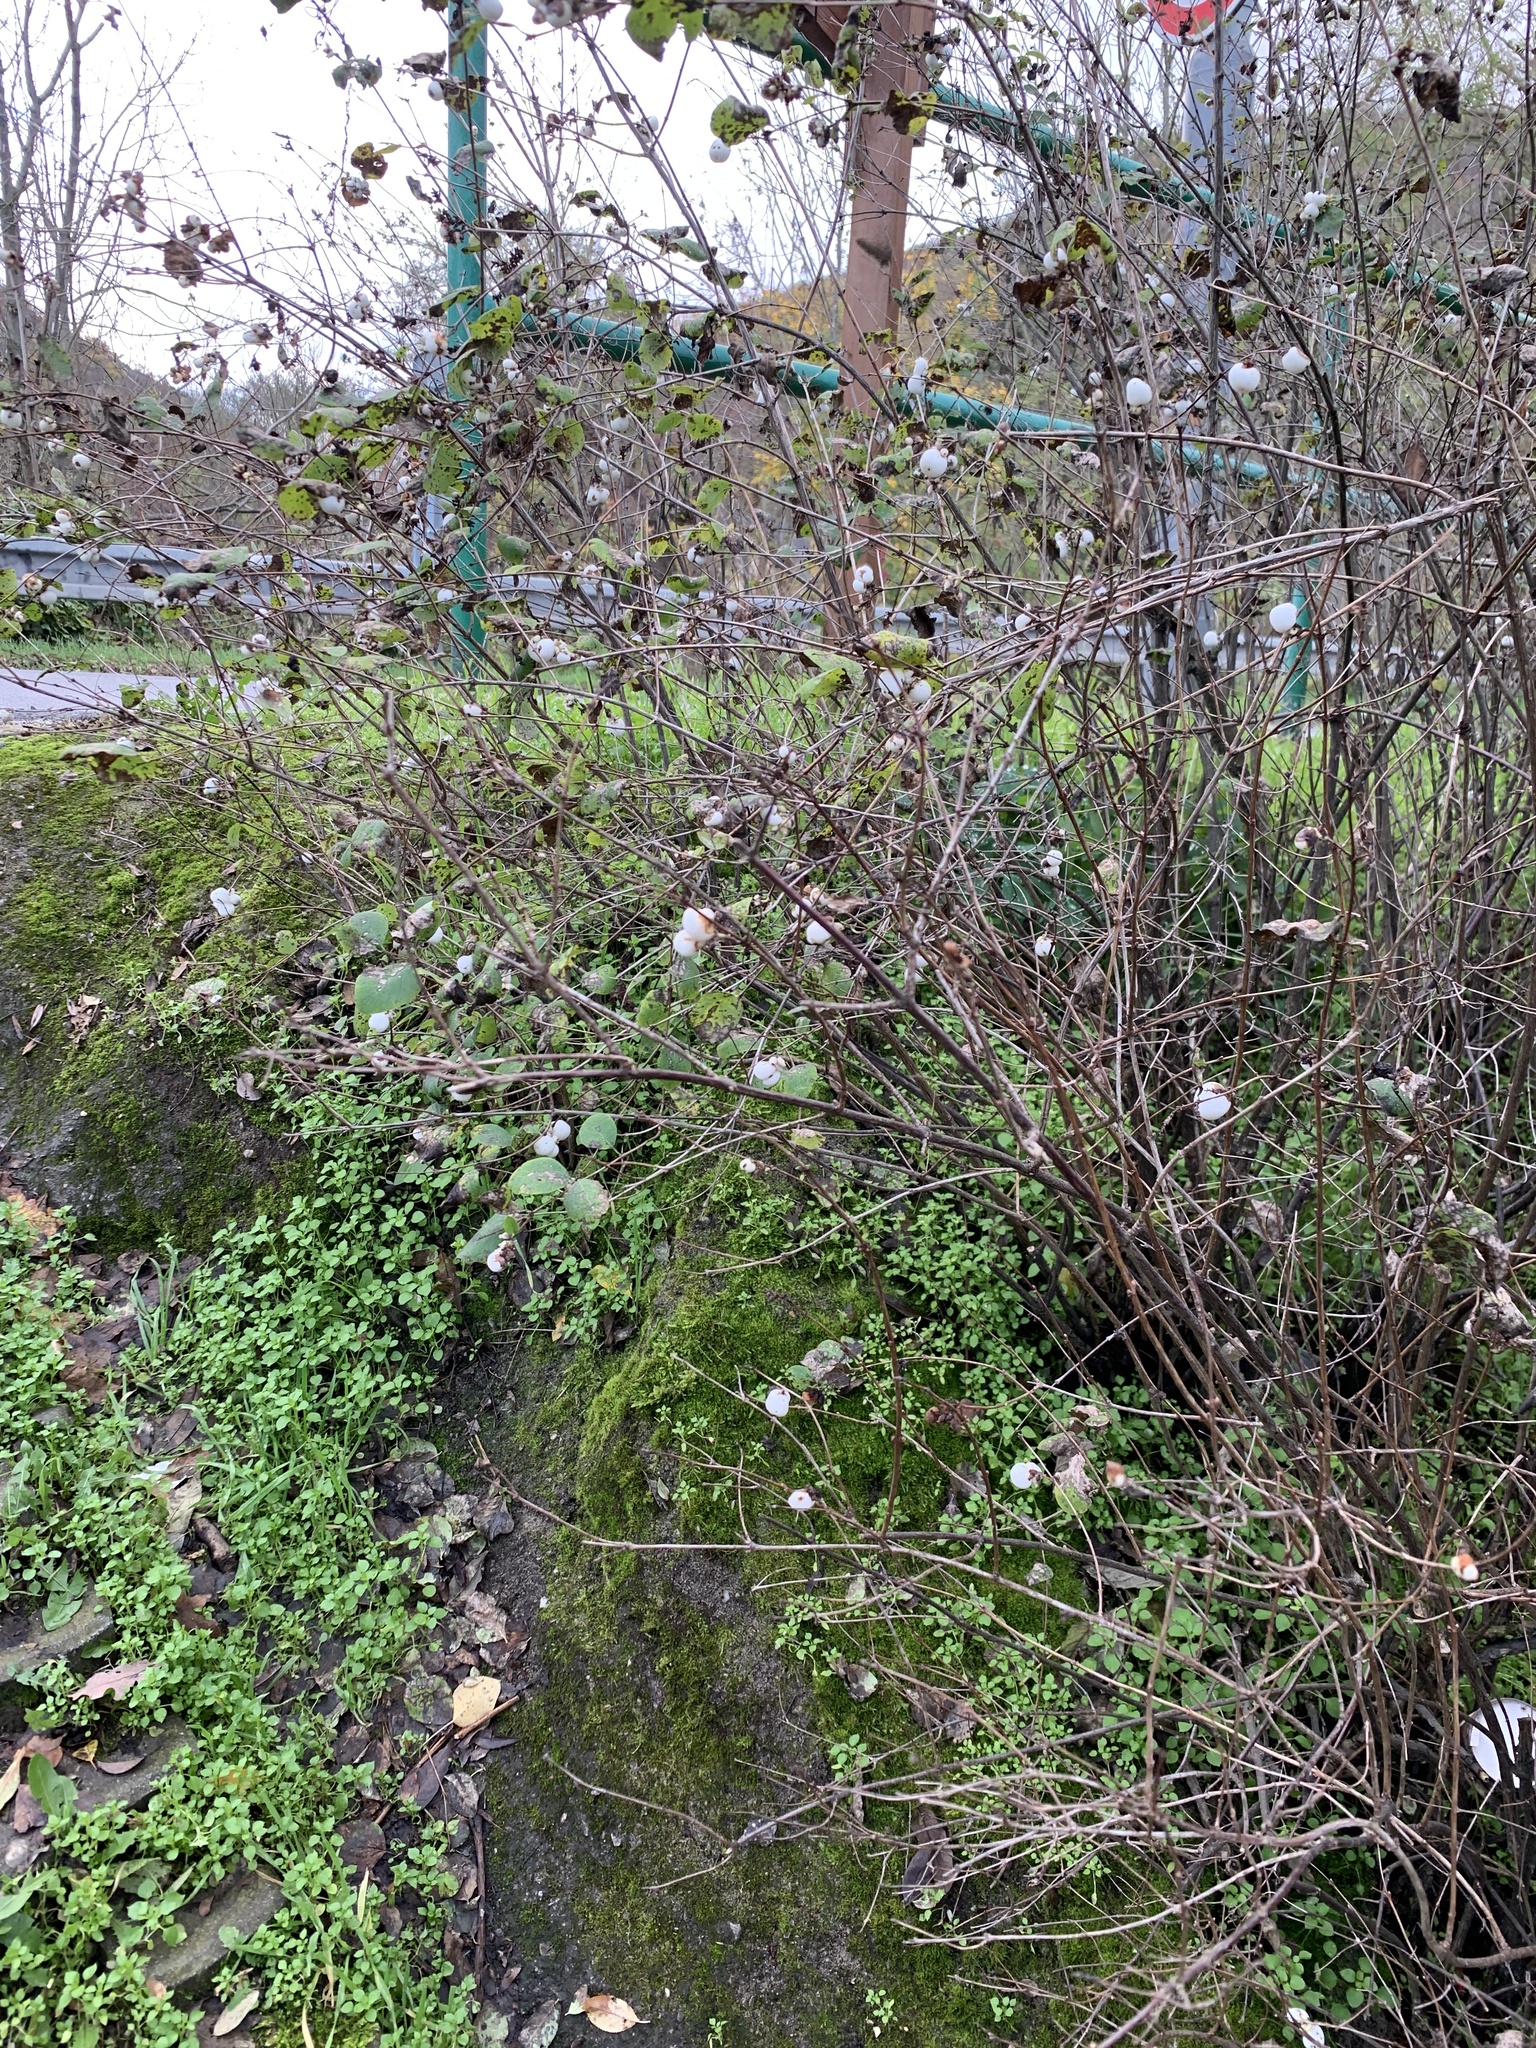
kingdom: Plantae
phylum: Tracheophyta
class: Magnoliopsida
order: Dipsacales
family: Caprifoliaceae
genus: Symphoricarpos
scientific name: Symphoricarpos albus
